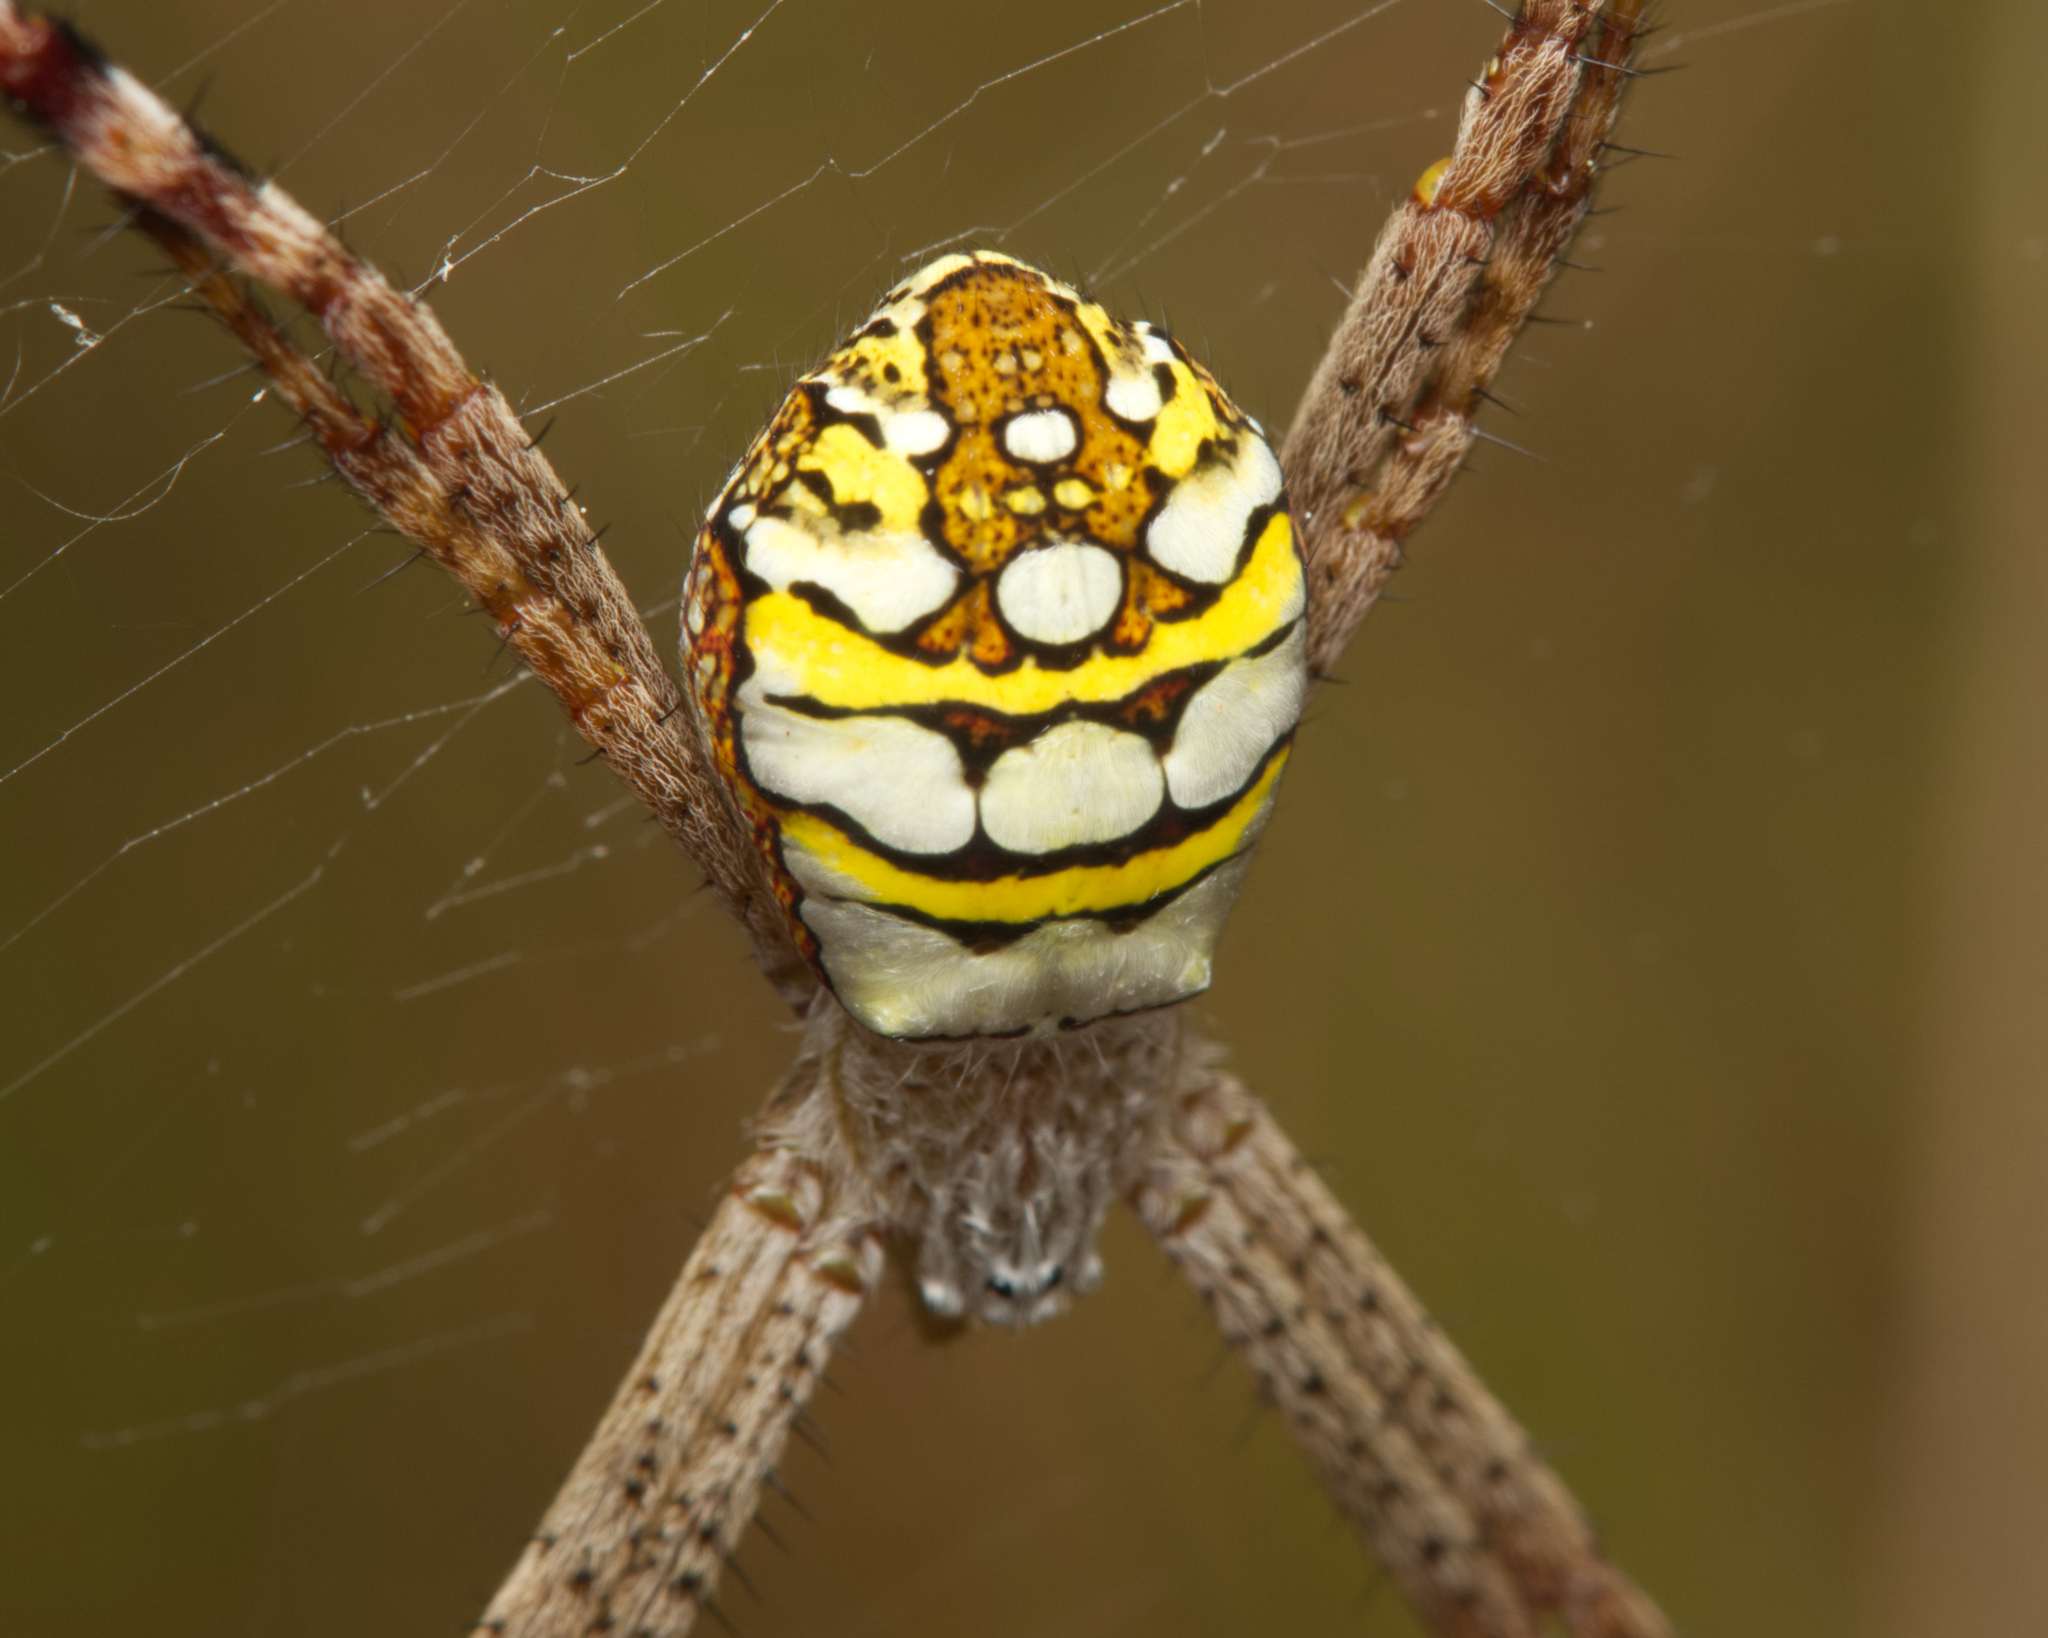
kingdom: Animalia
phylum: Arthropoda
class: Arachnida
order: Araneae
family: Araneidae
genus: Argiope
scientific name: Argiope picta
